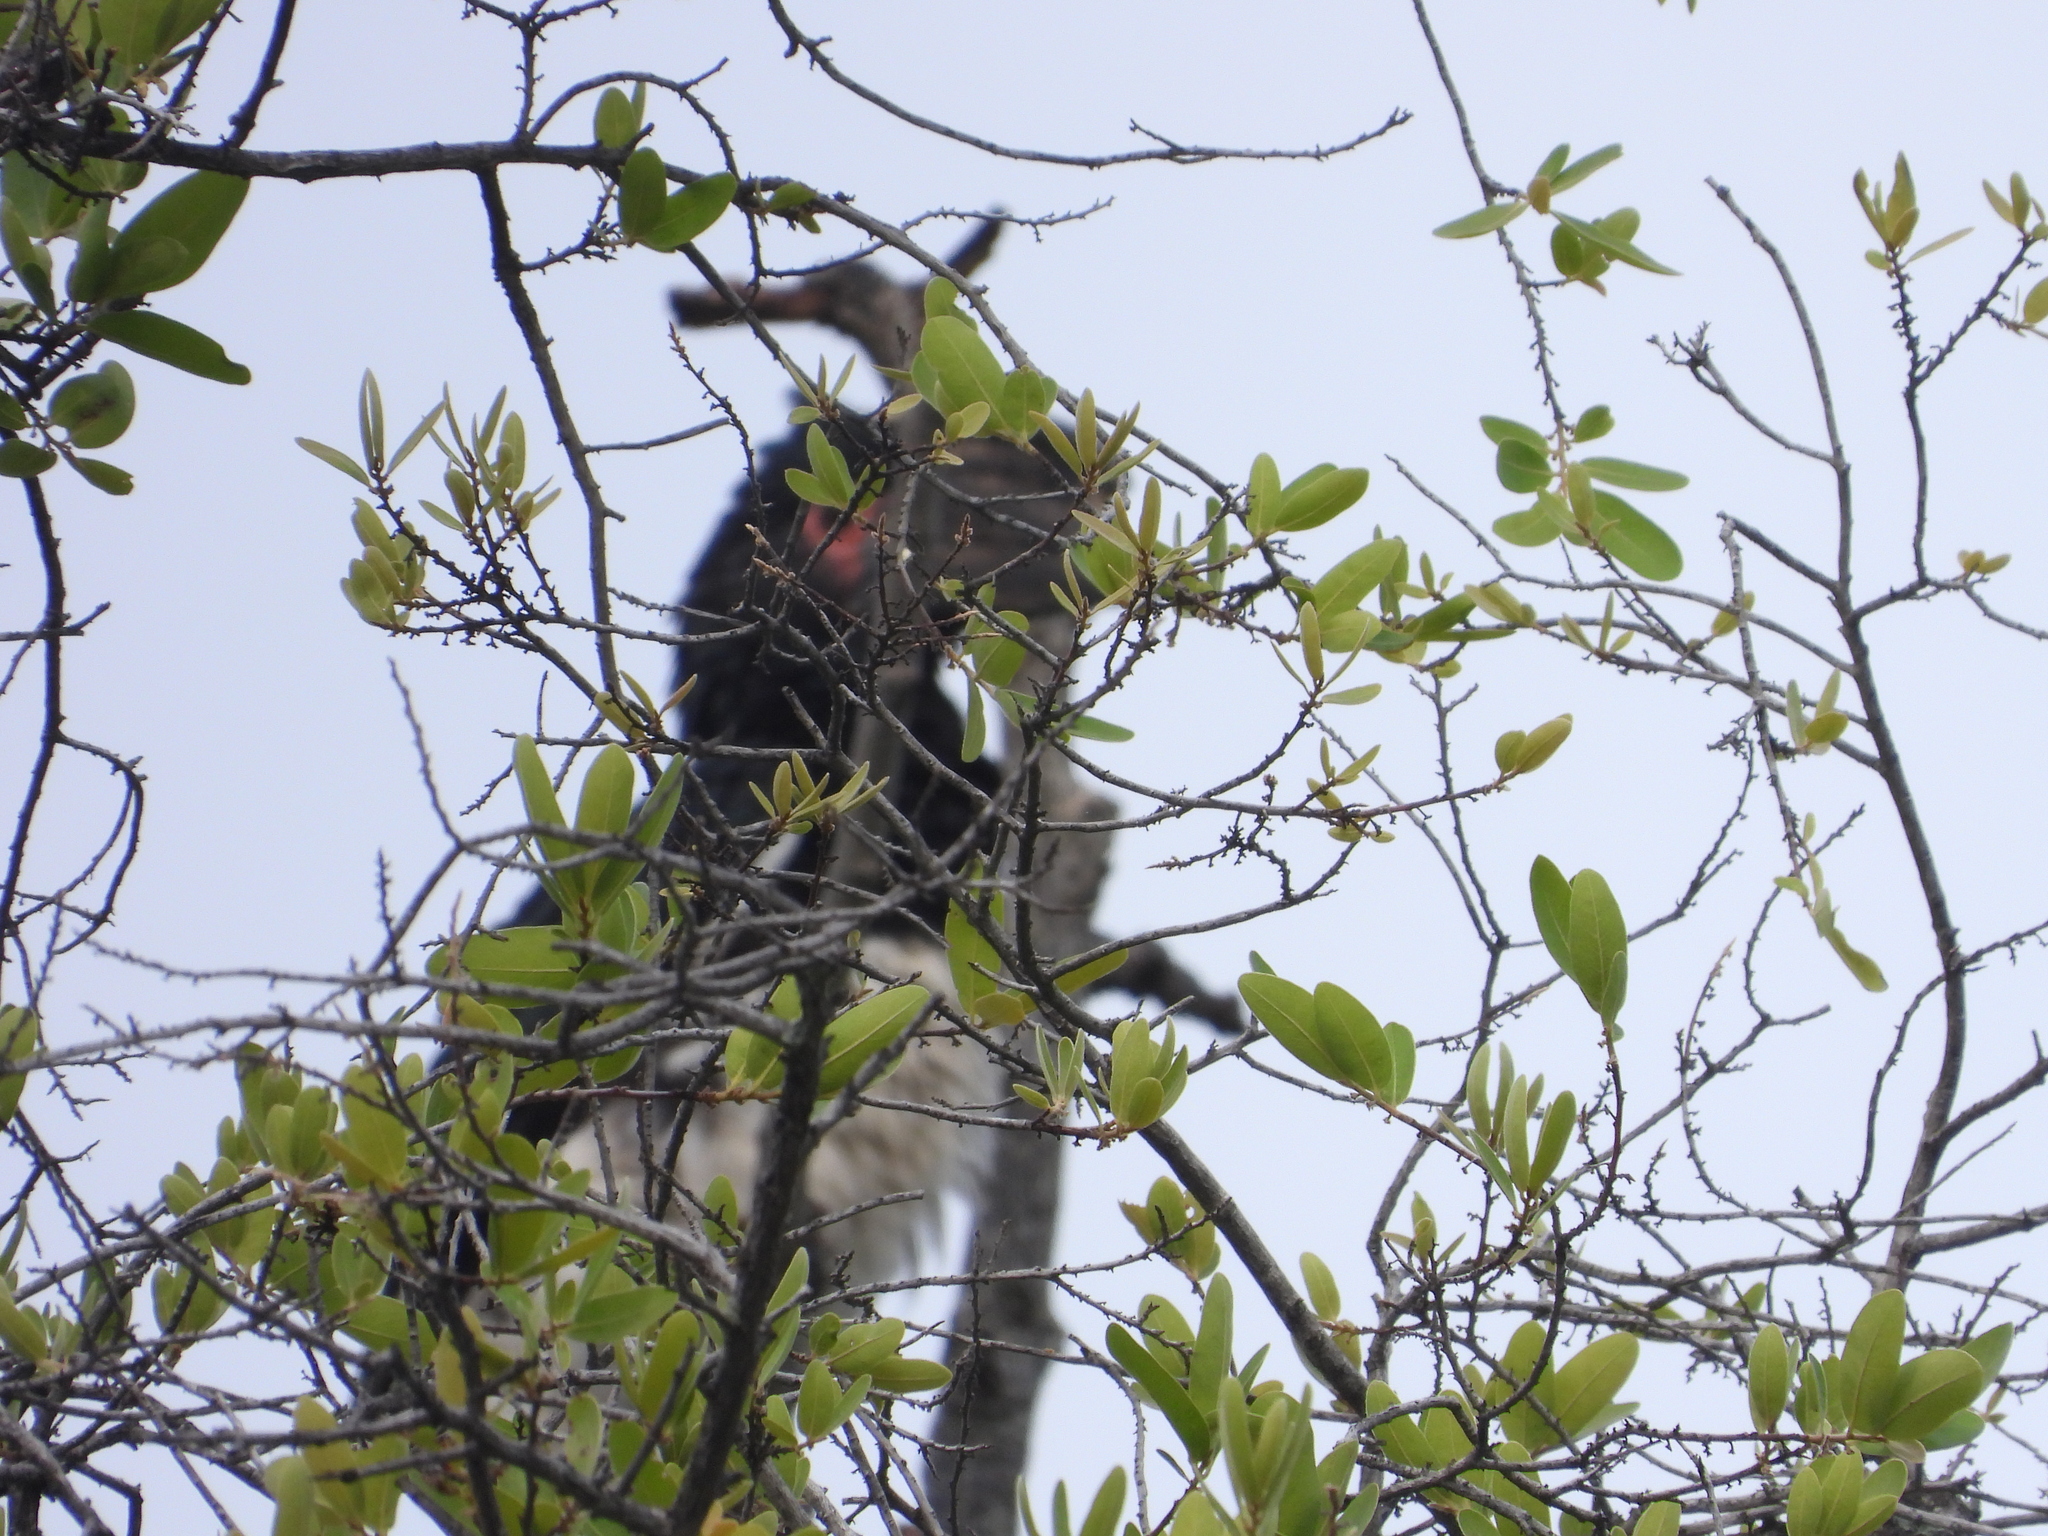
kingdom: Animalia
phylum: Chordata
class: Aves
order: Bucerotiformes
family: Bucerotidae
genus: Bycanistes
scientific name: Bycanistes bucinator
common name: Trumpeter hornbill
